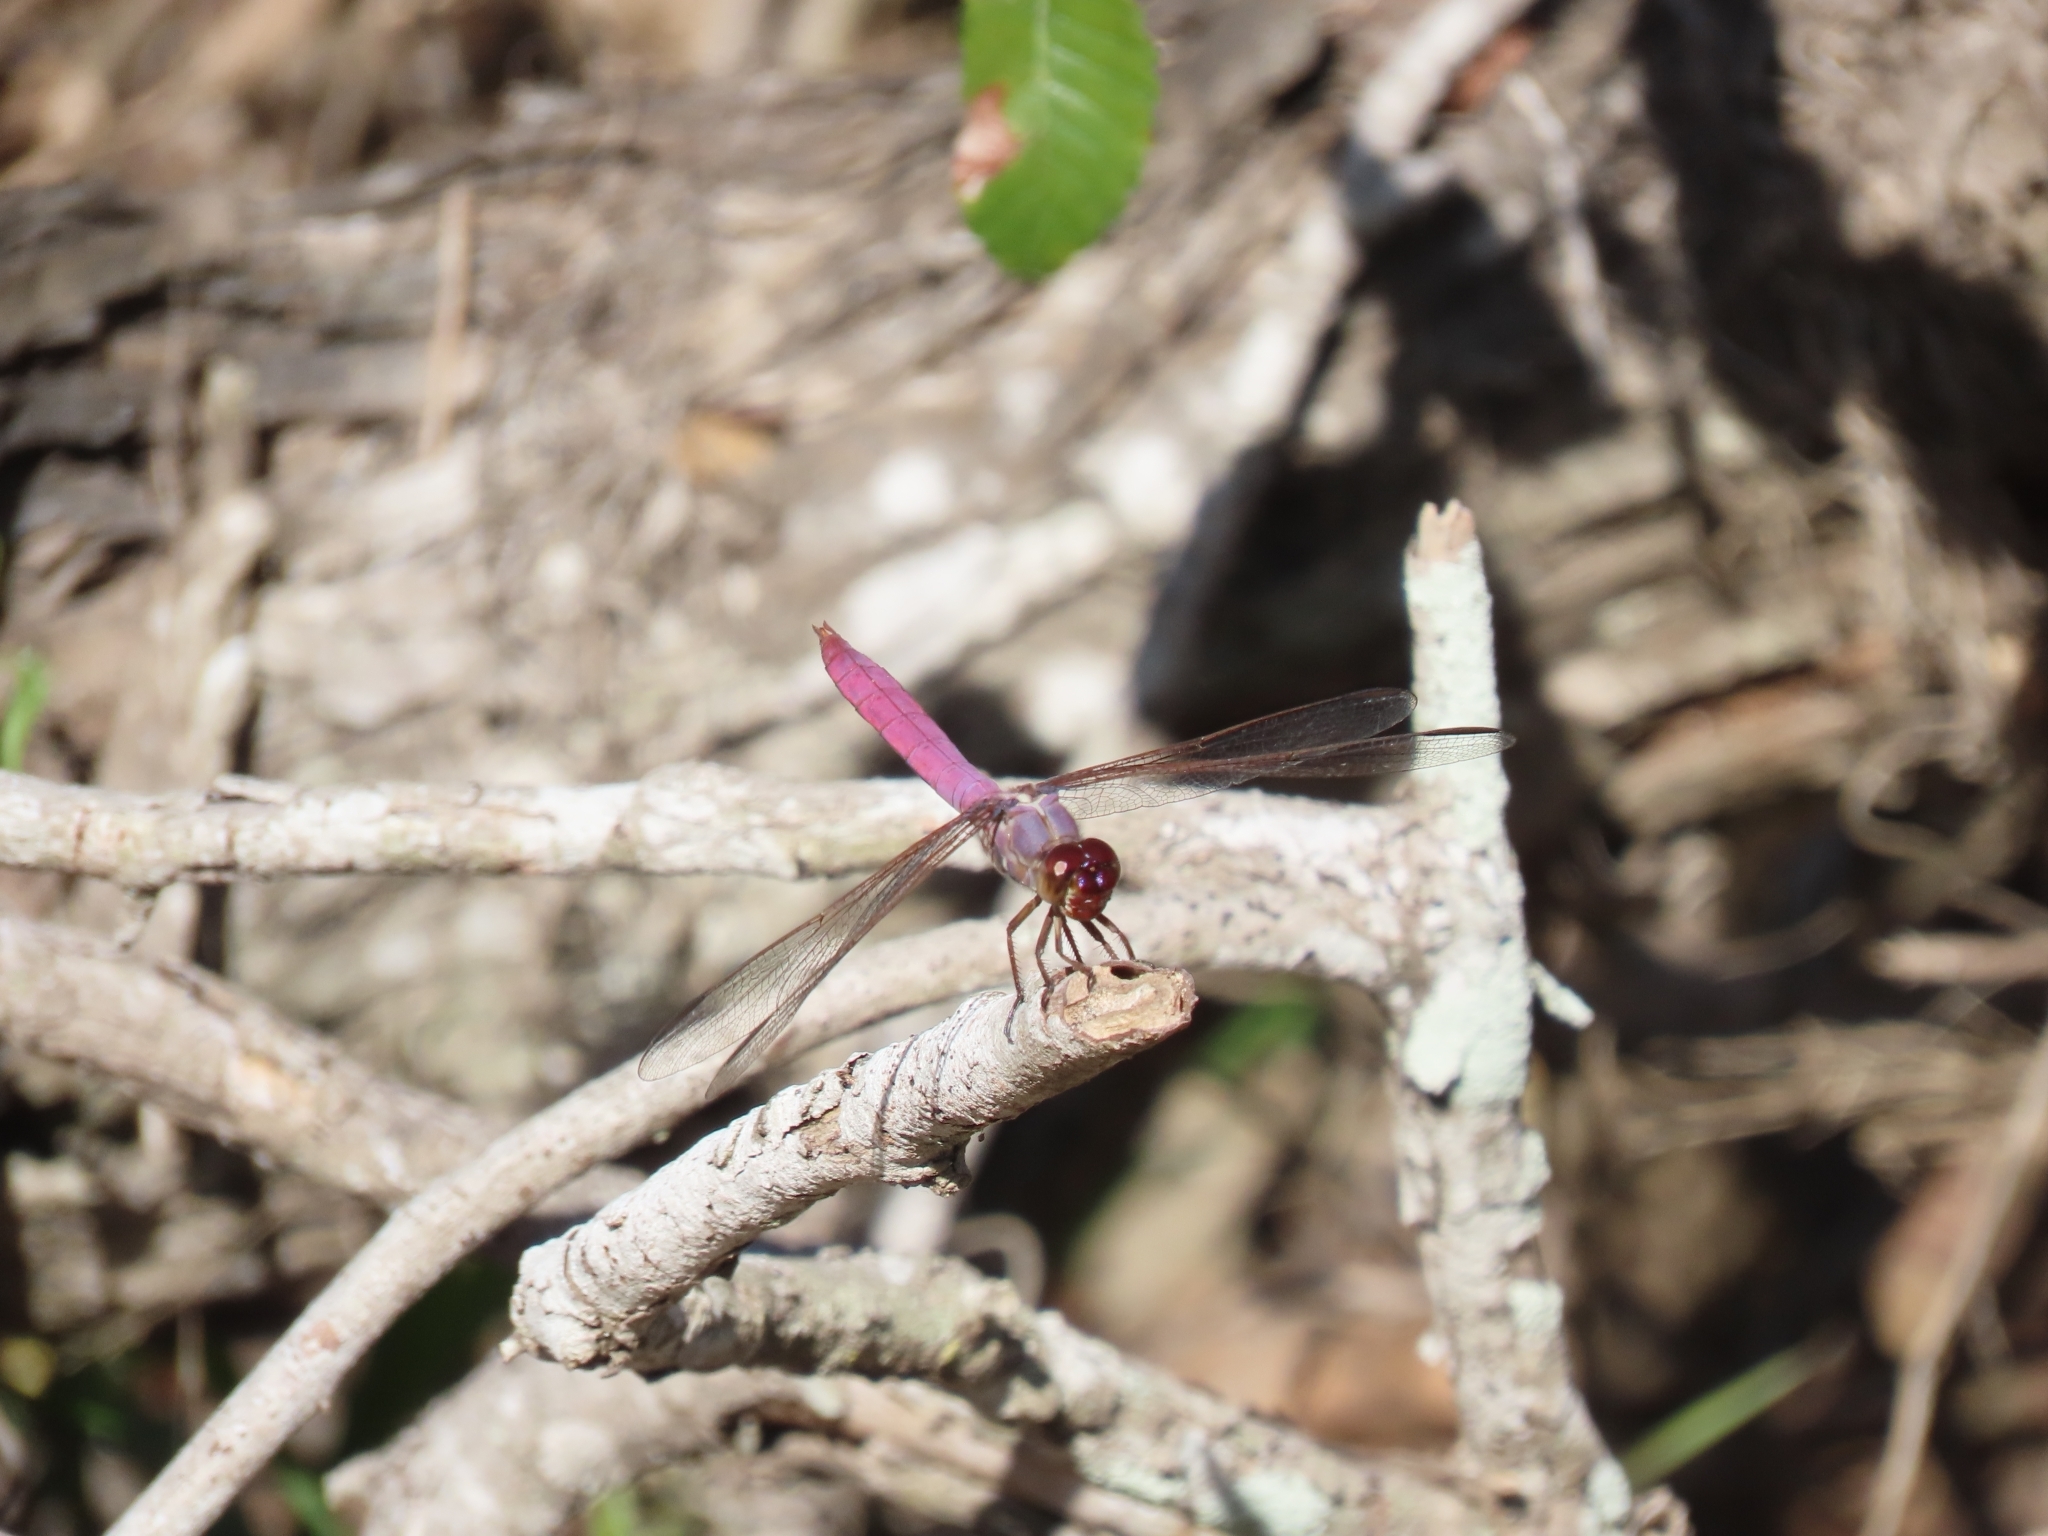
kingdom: Animalia
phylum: Arthropoda
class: Insecta
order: Odonata
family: Libellulidae
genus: Orthemis
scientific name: Orthemis ferruginea
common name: Roseate skimmer
